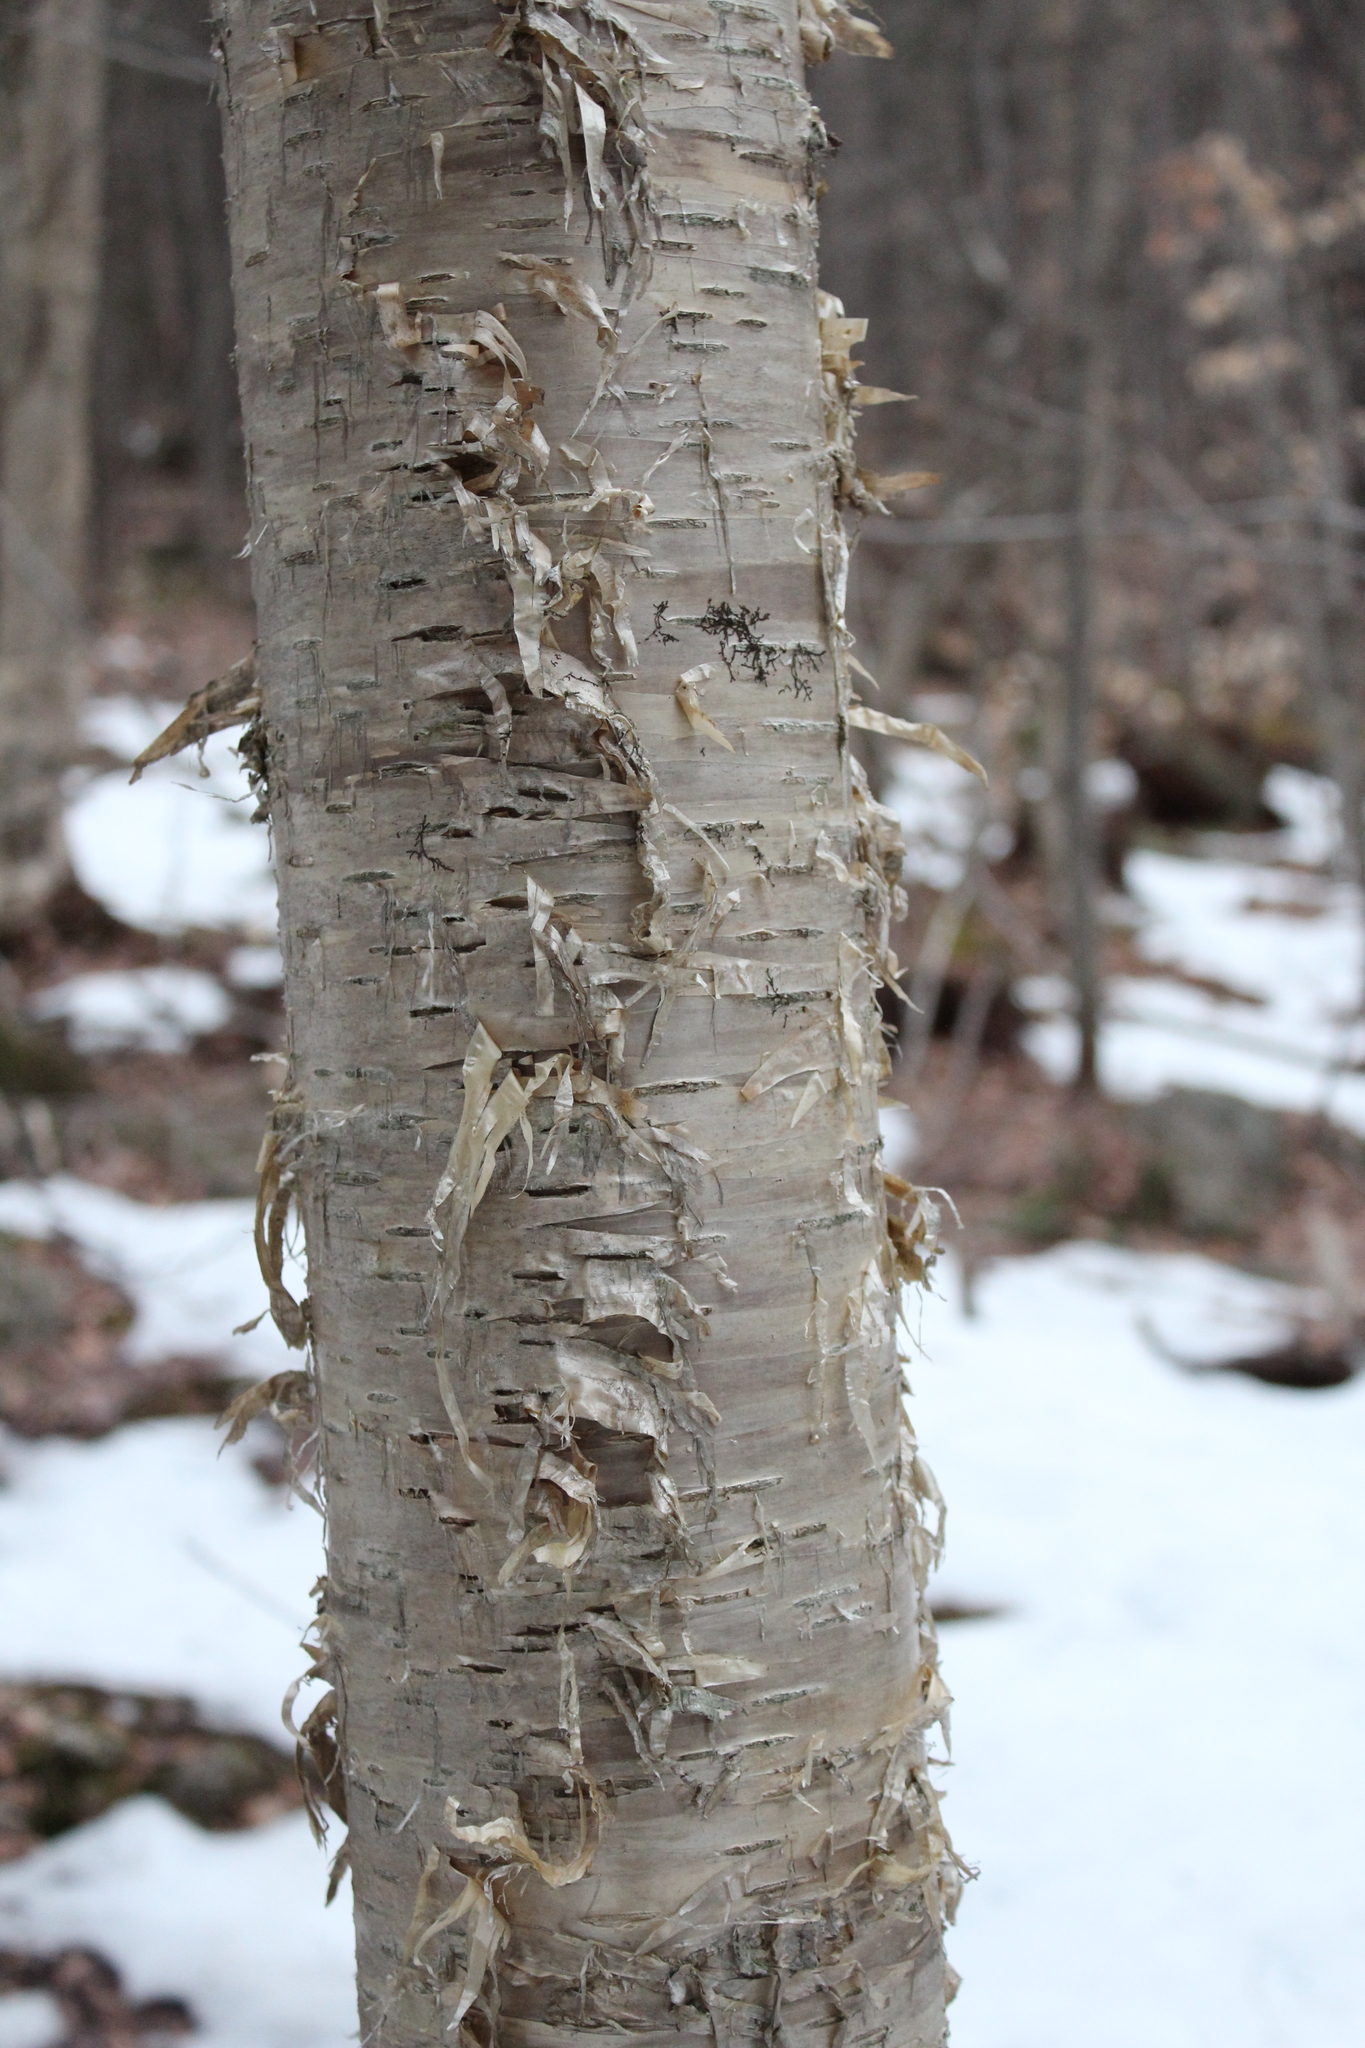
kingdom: Plantae
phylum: Tracheophyta
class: Magnoliopsida
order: Fagales
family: Betulaceae
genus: Betula
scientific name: Betula alleghaniensis
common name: Yellow birch
